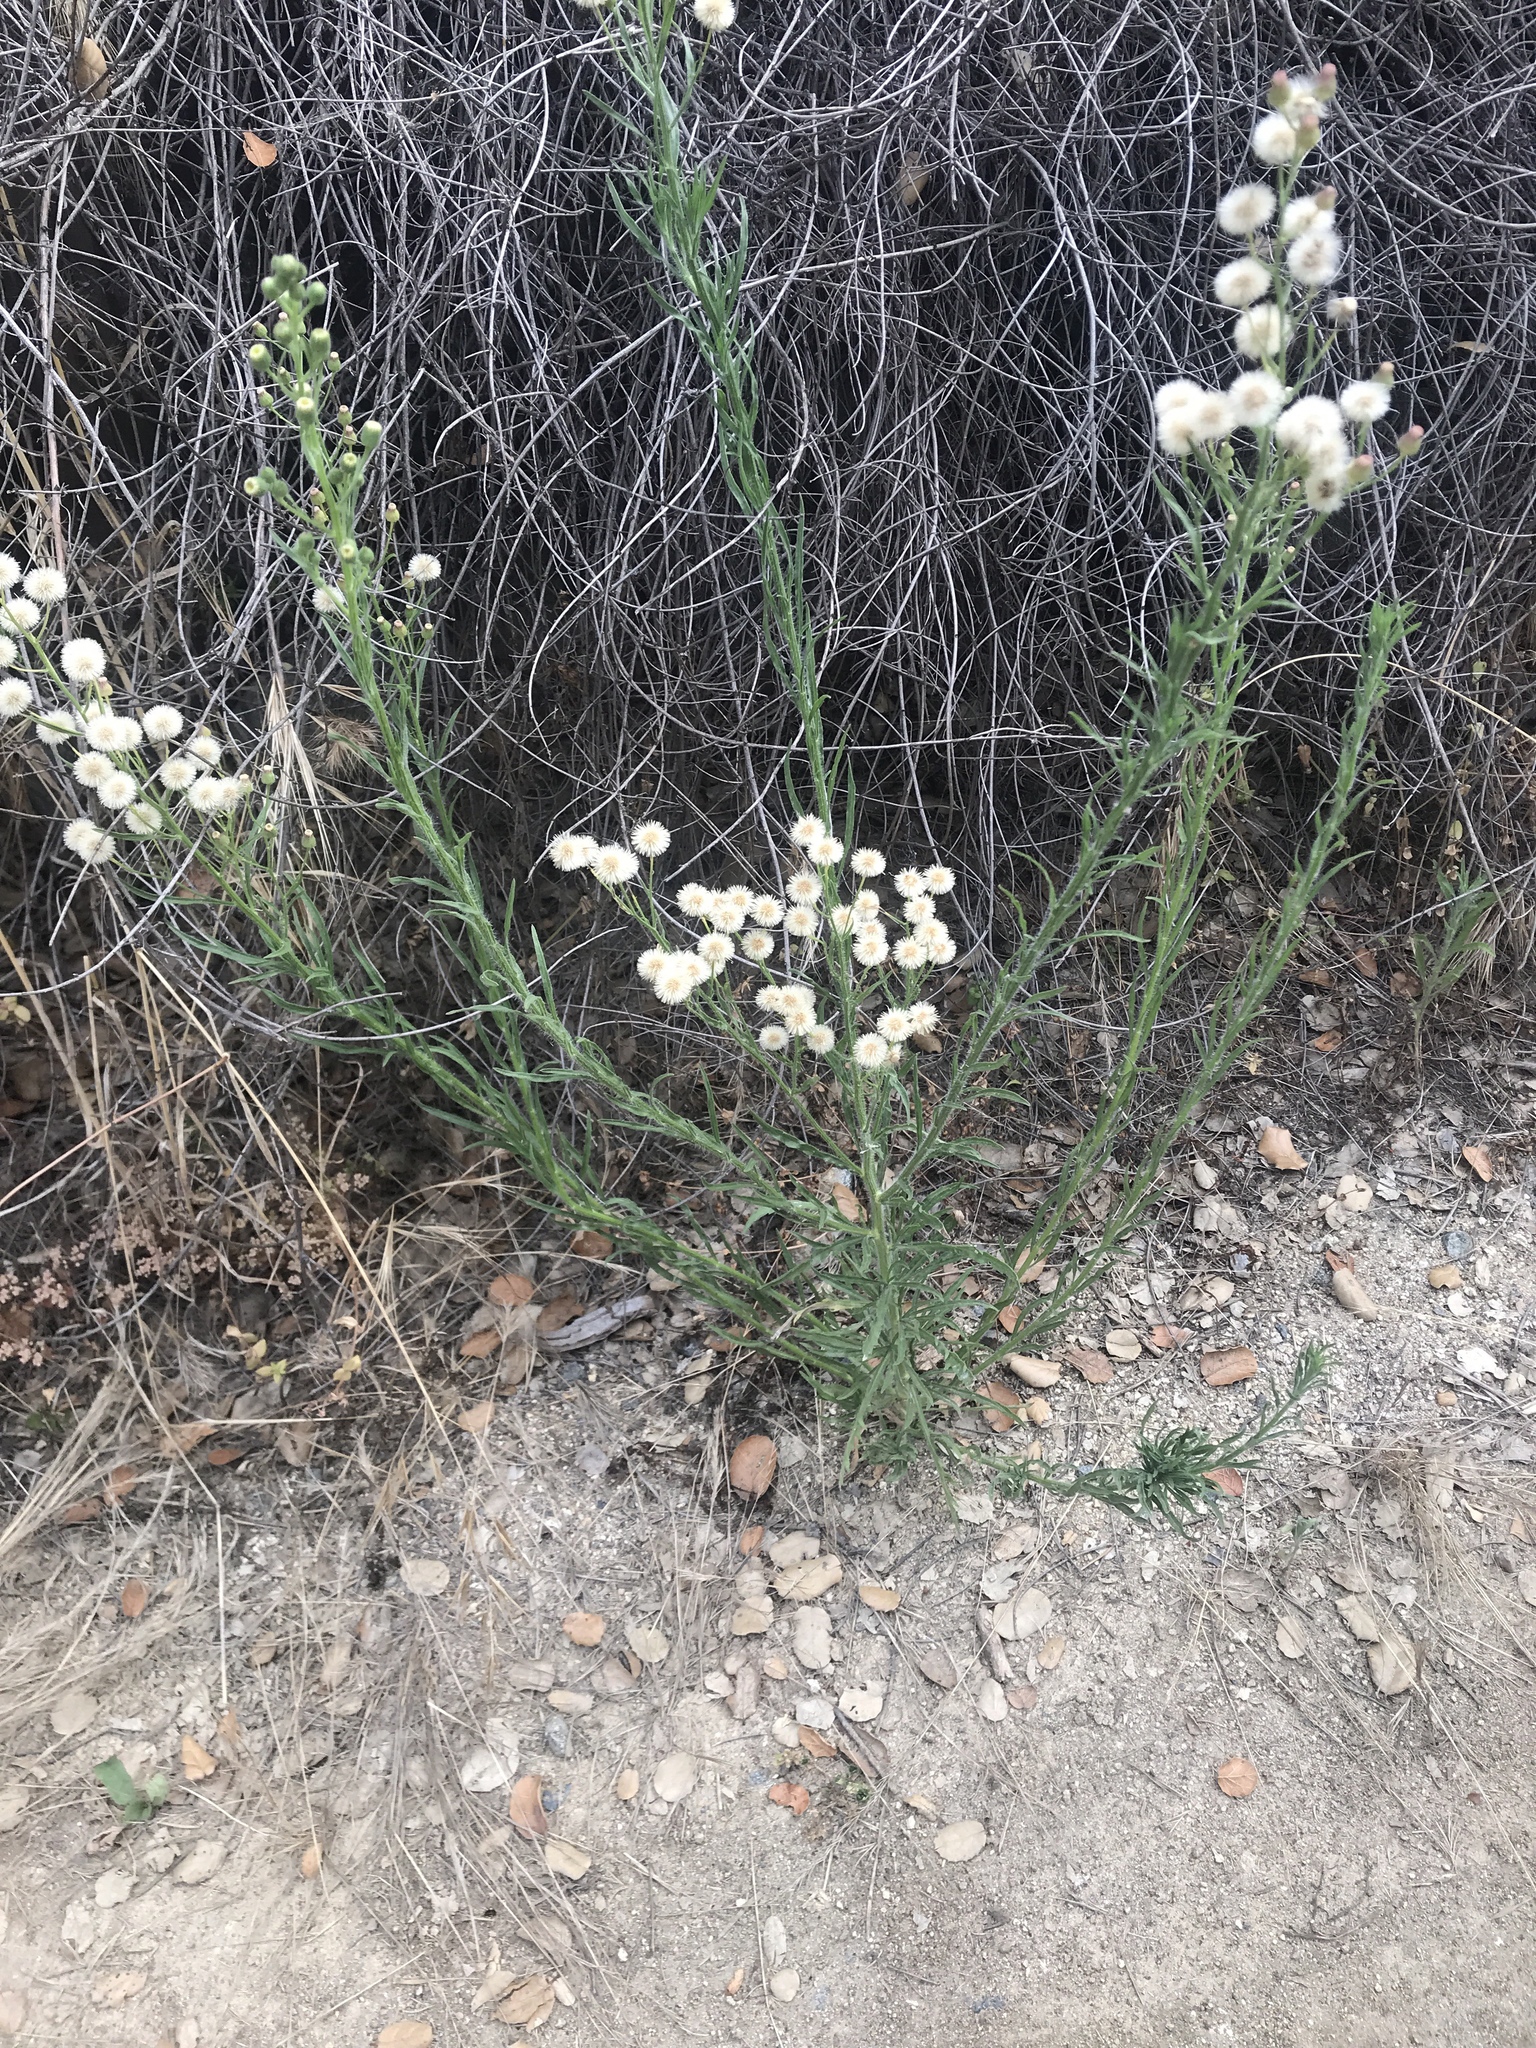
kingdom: Plantae
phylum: Tracheophyta
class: Magnoliopsida
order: Asterales
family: Asteraceae
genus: Erigeron
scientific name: Erigeron bonariensis
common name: Argentine fleabane
